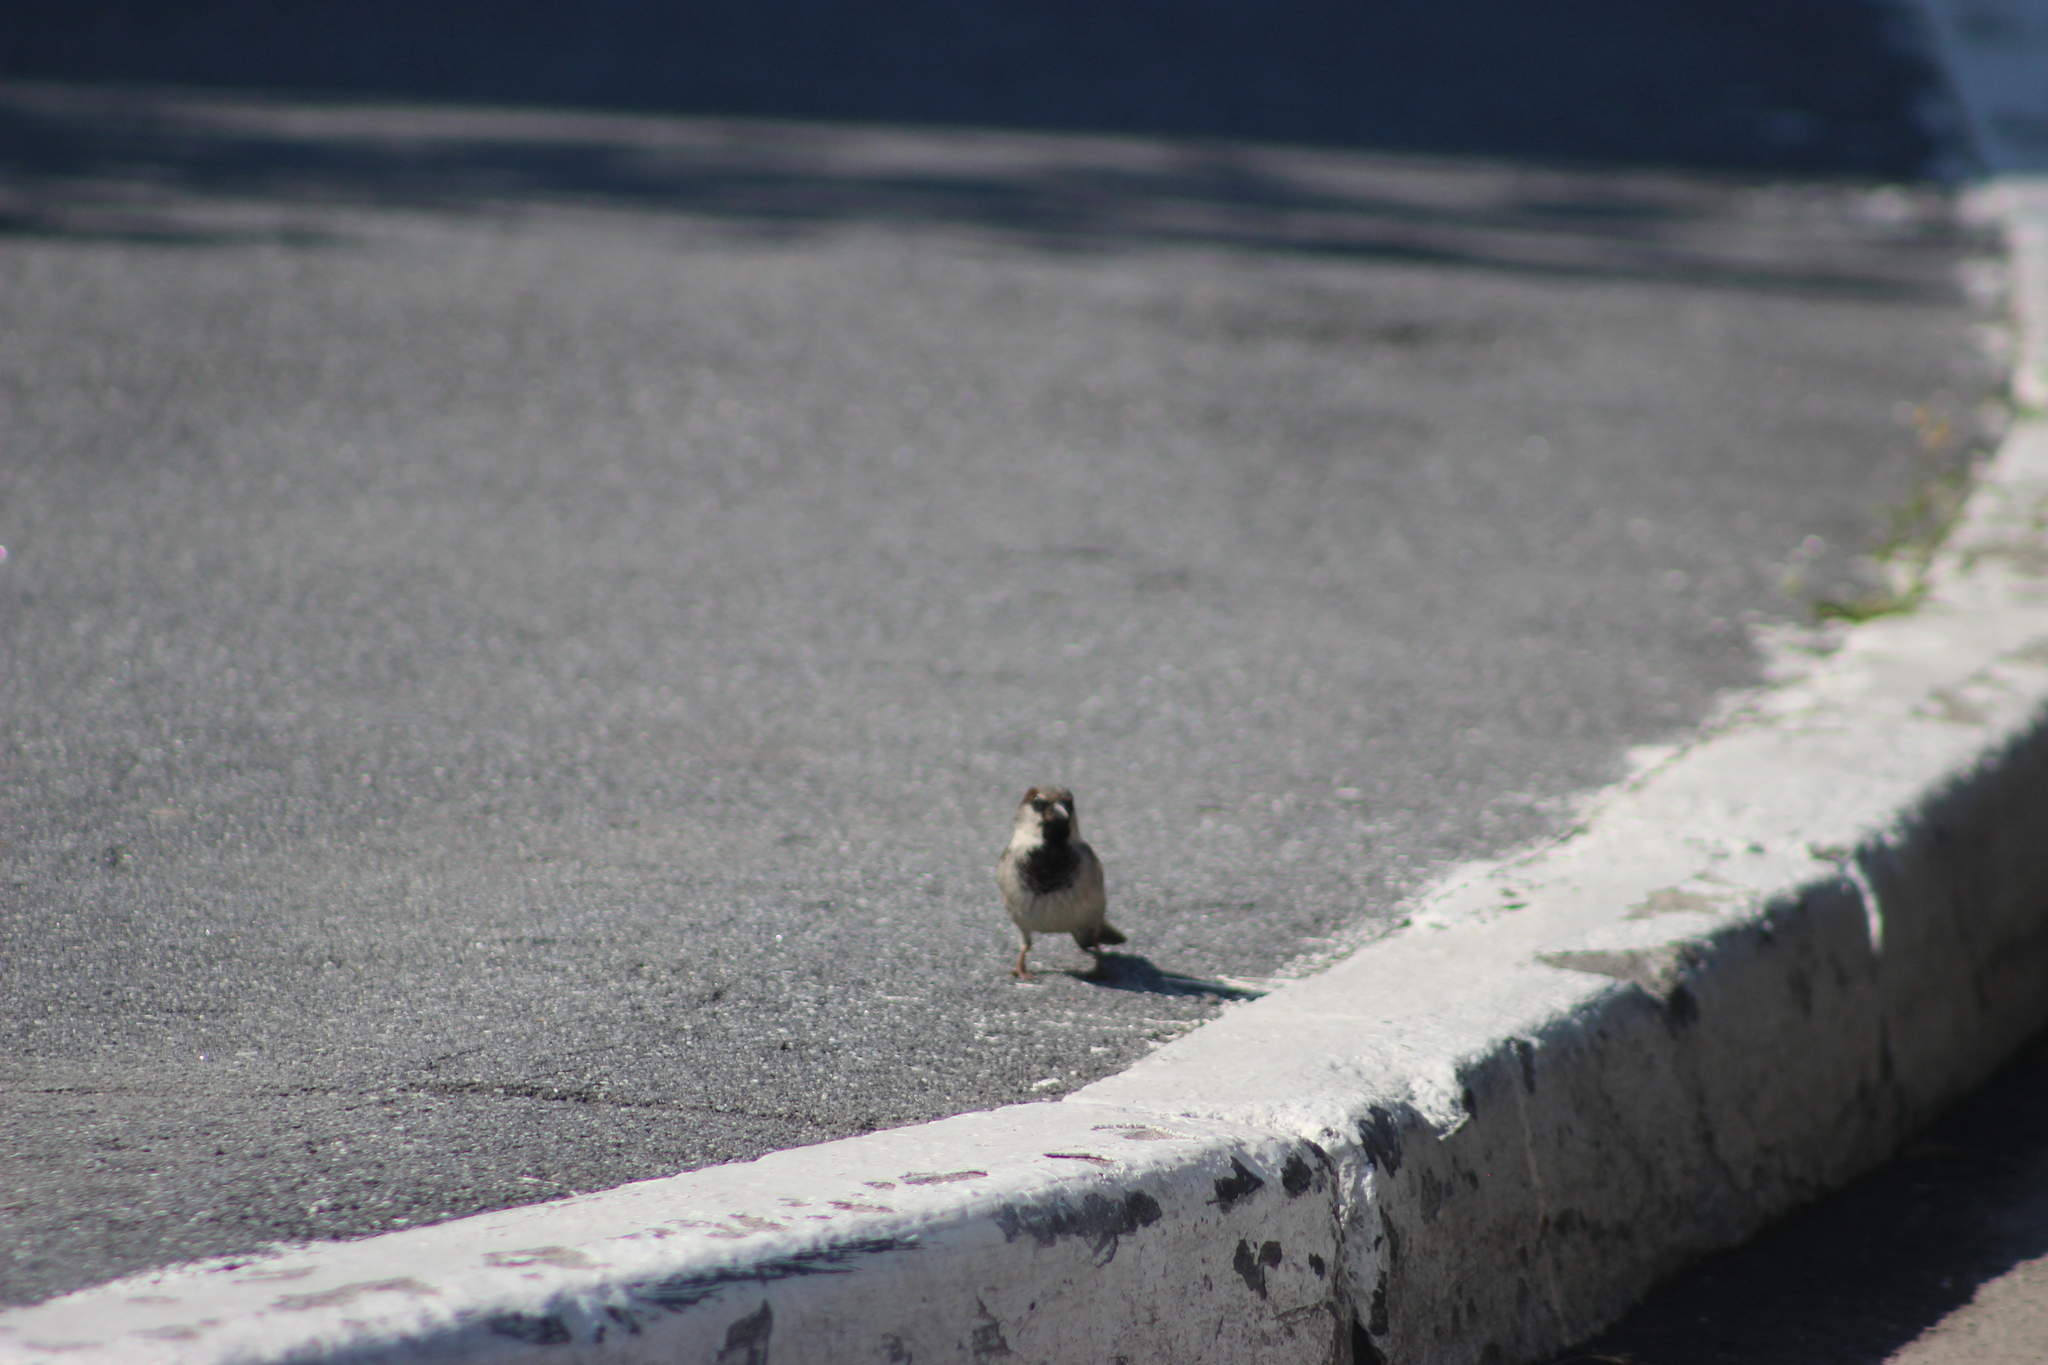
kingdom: Animalia
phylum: Chordata
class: Aves
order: Passeriformes
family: Passeridae
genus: Passer
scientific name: Passer domesticus
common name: House sparrow
